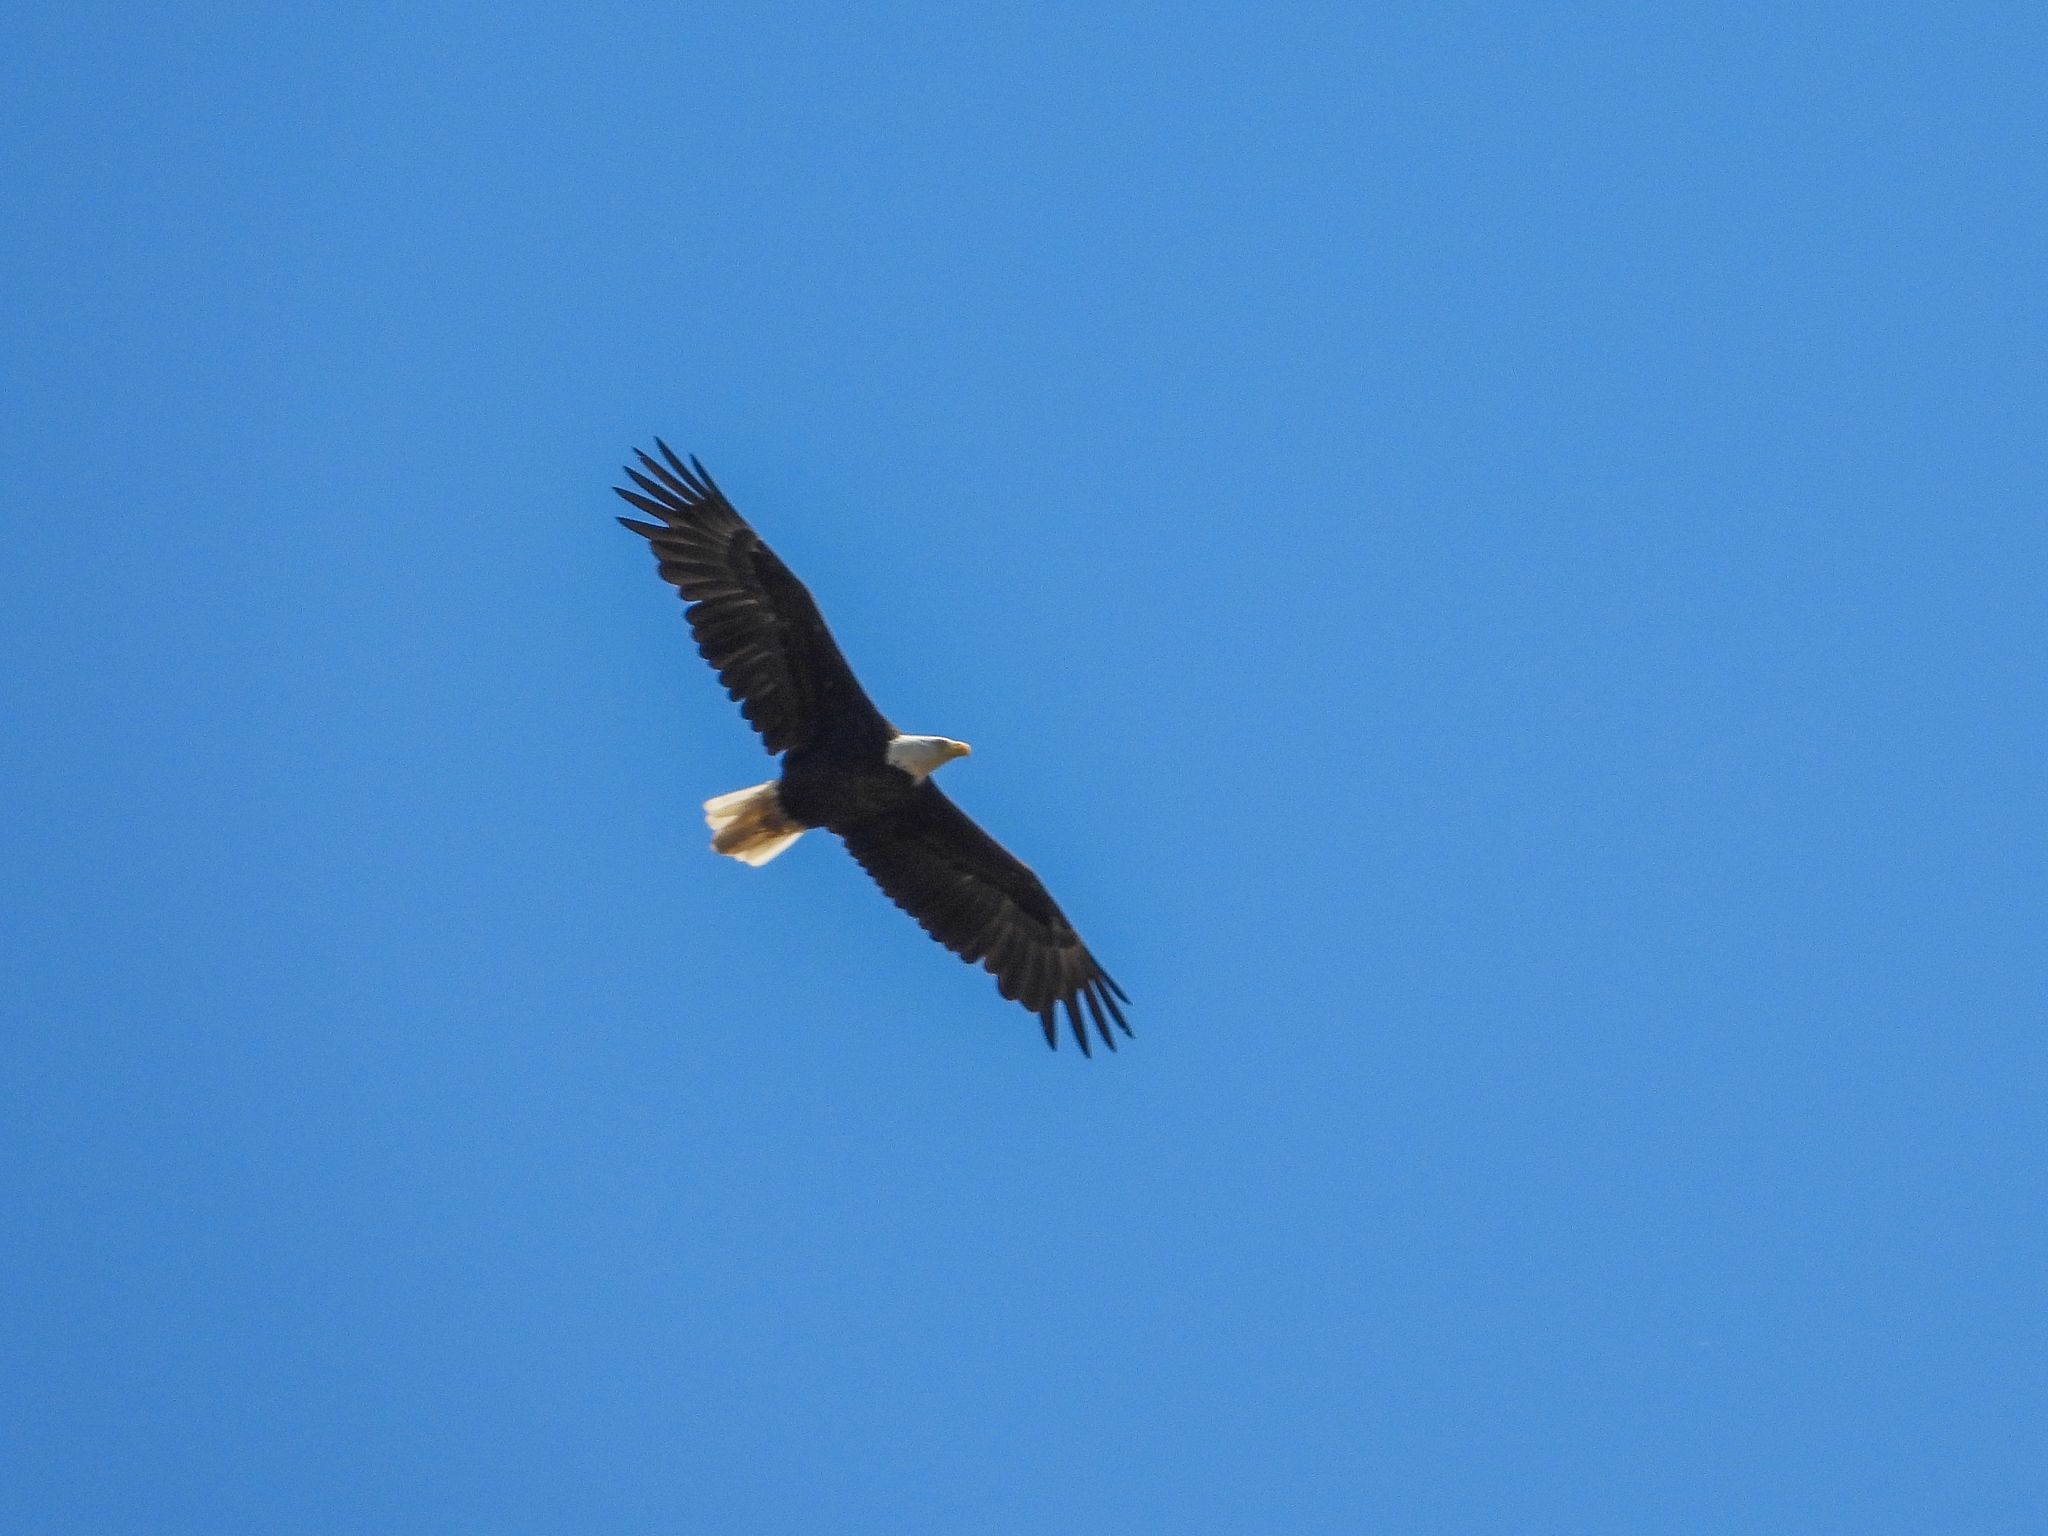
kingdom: Animalia
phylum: Chordata
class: Aves
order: Accipitriformes
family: Accipitridae
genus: Haliaeetus
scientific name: Haliaeetus leucocephalus
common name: Bald eagle
